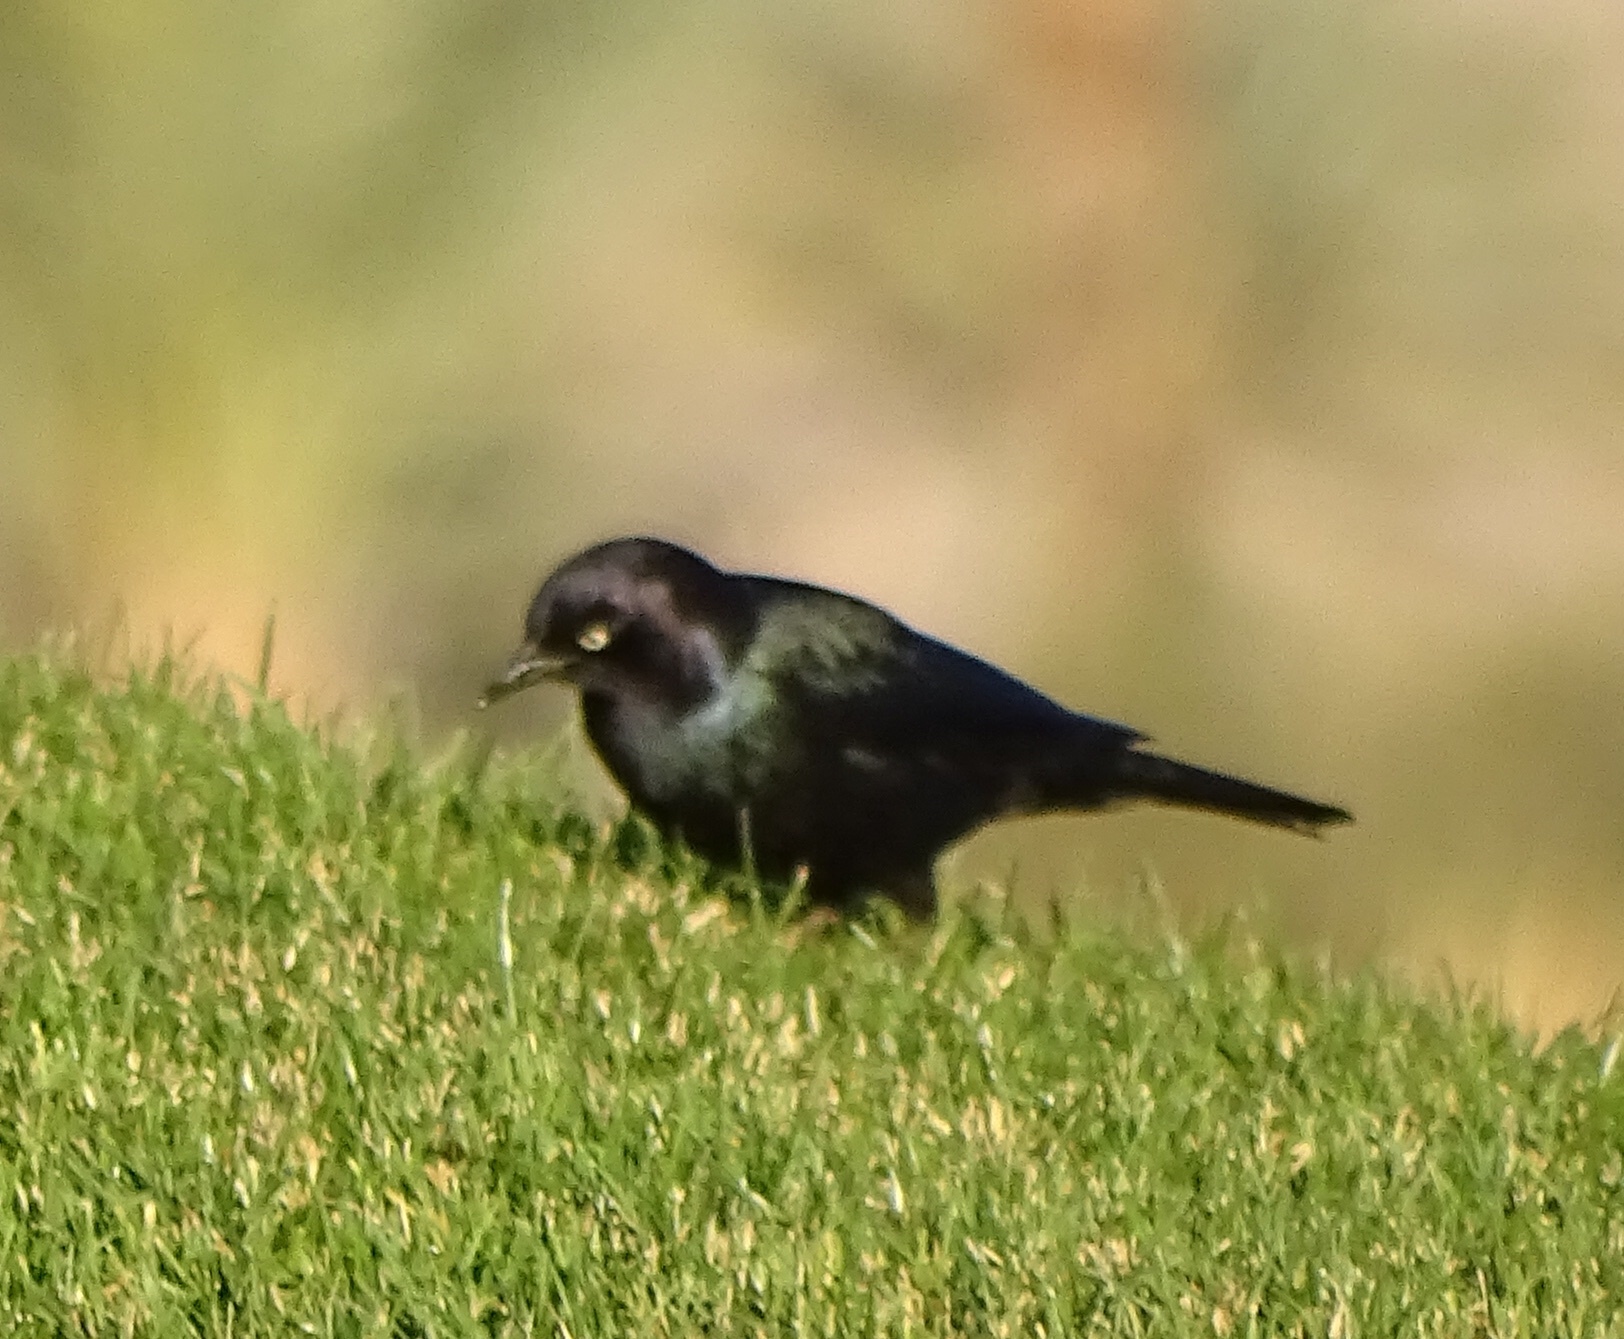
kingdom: Animalia
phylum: Chordata
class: Aves
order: Passeriformes
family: Icteridae
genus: Euphagus
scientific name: Euphagus cyanocephalus
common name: Brewer's blackbird
